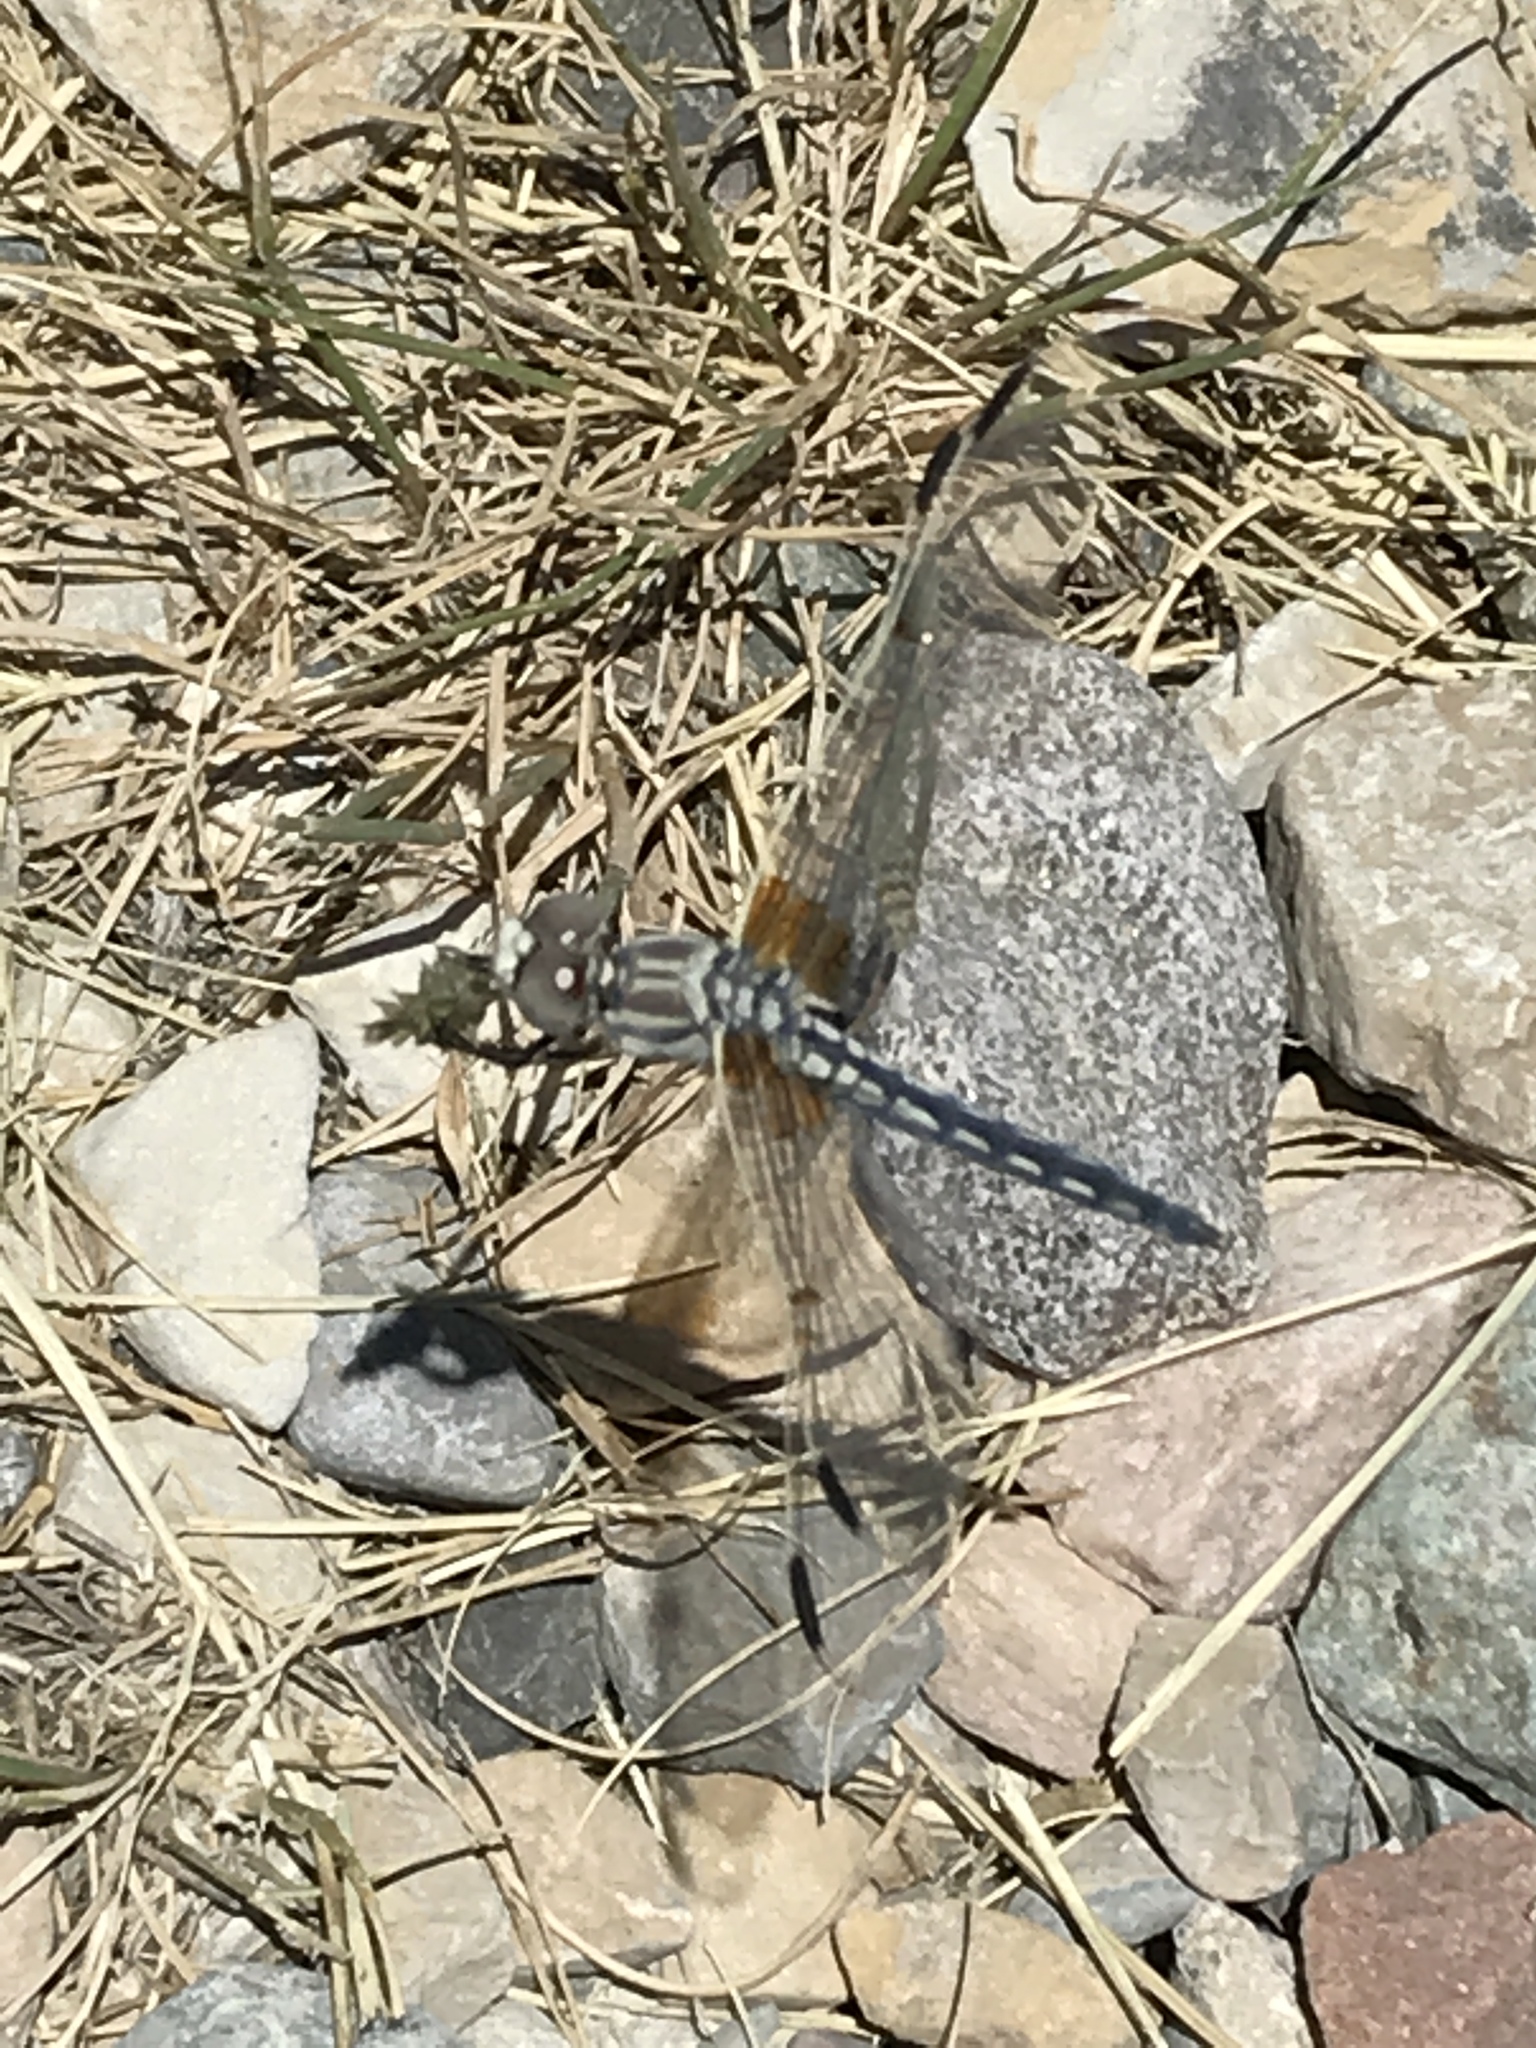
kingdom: Animalia
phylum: Arthropoda
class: Insecta
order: Odonata
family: Libellulidae
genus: Libellula
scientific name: Libellula composita
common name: Bleached skimmer
